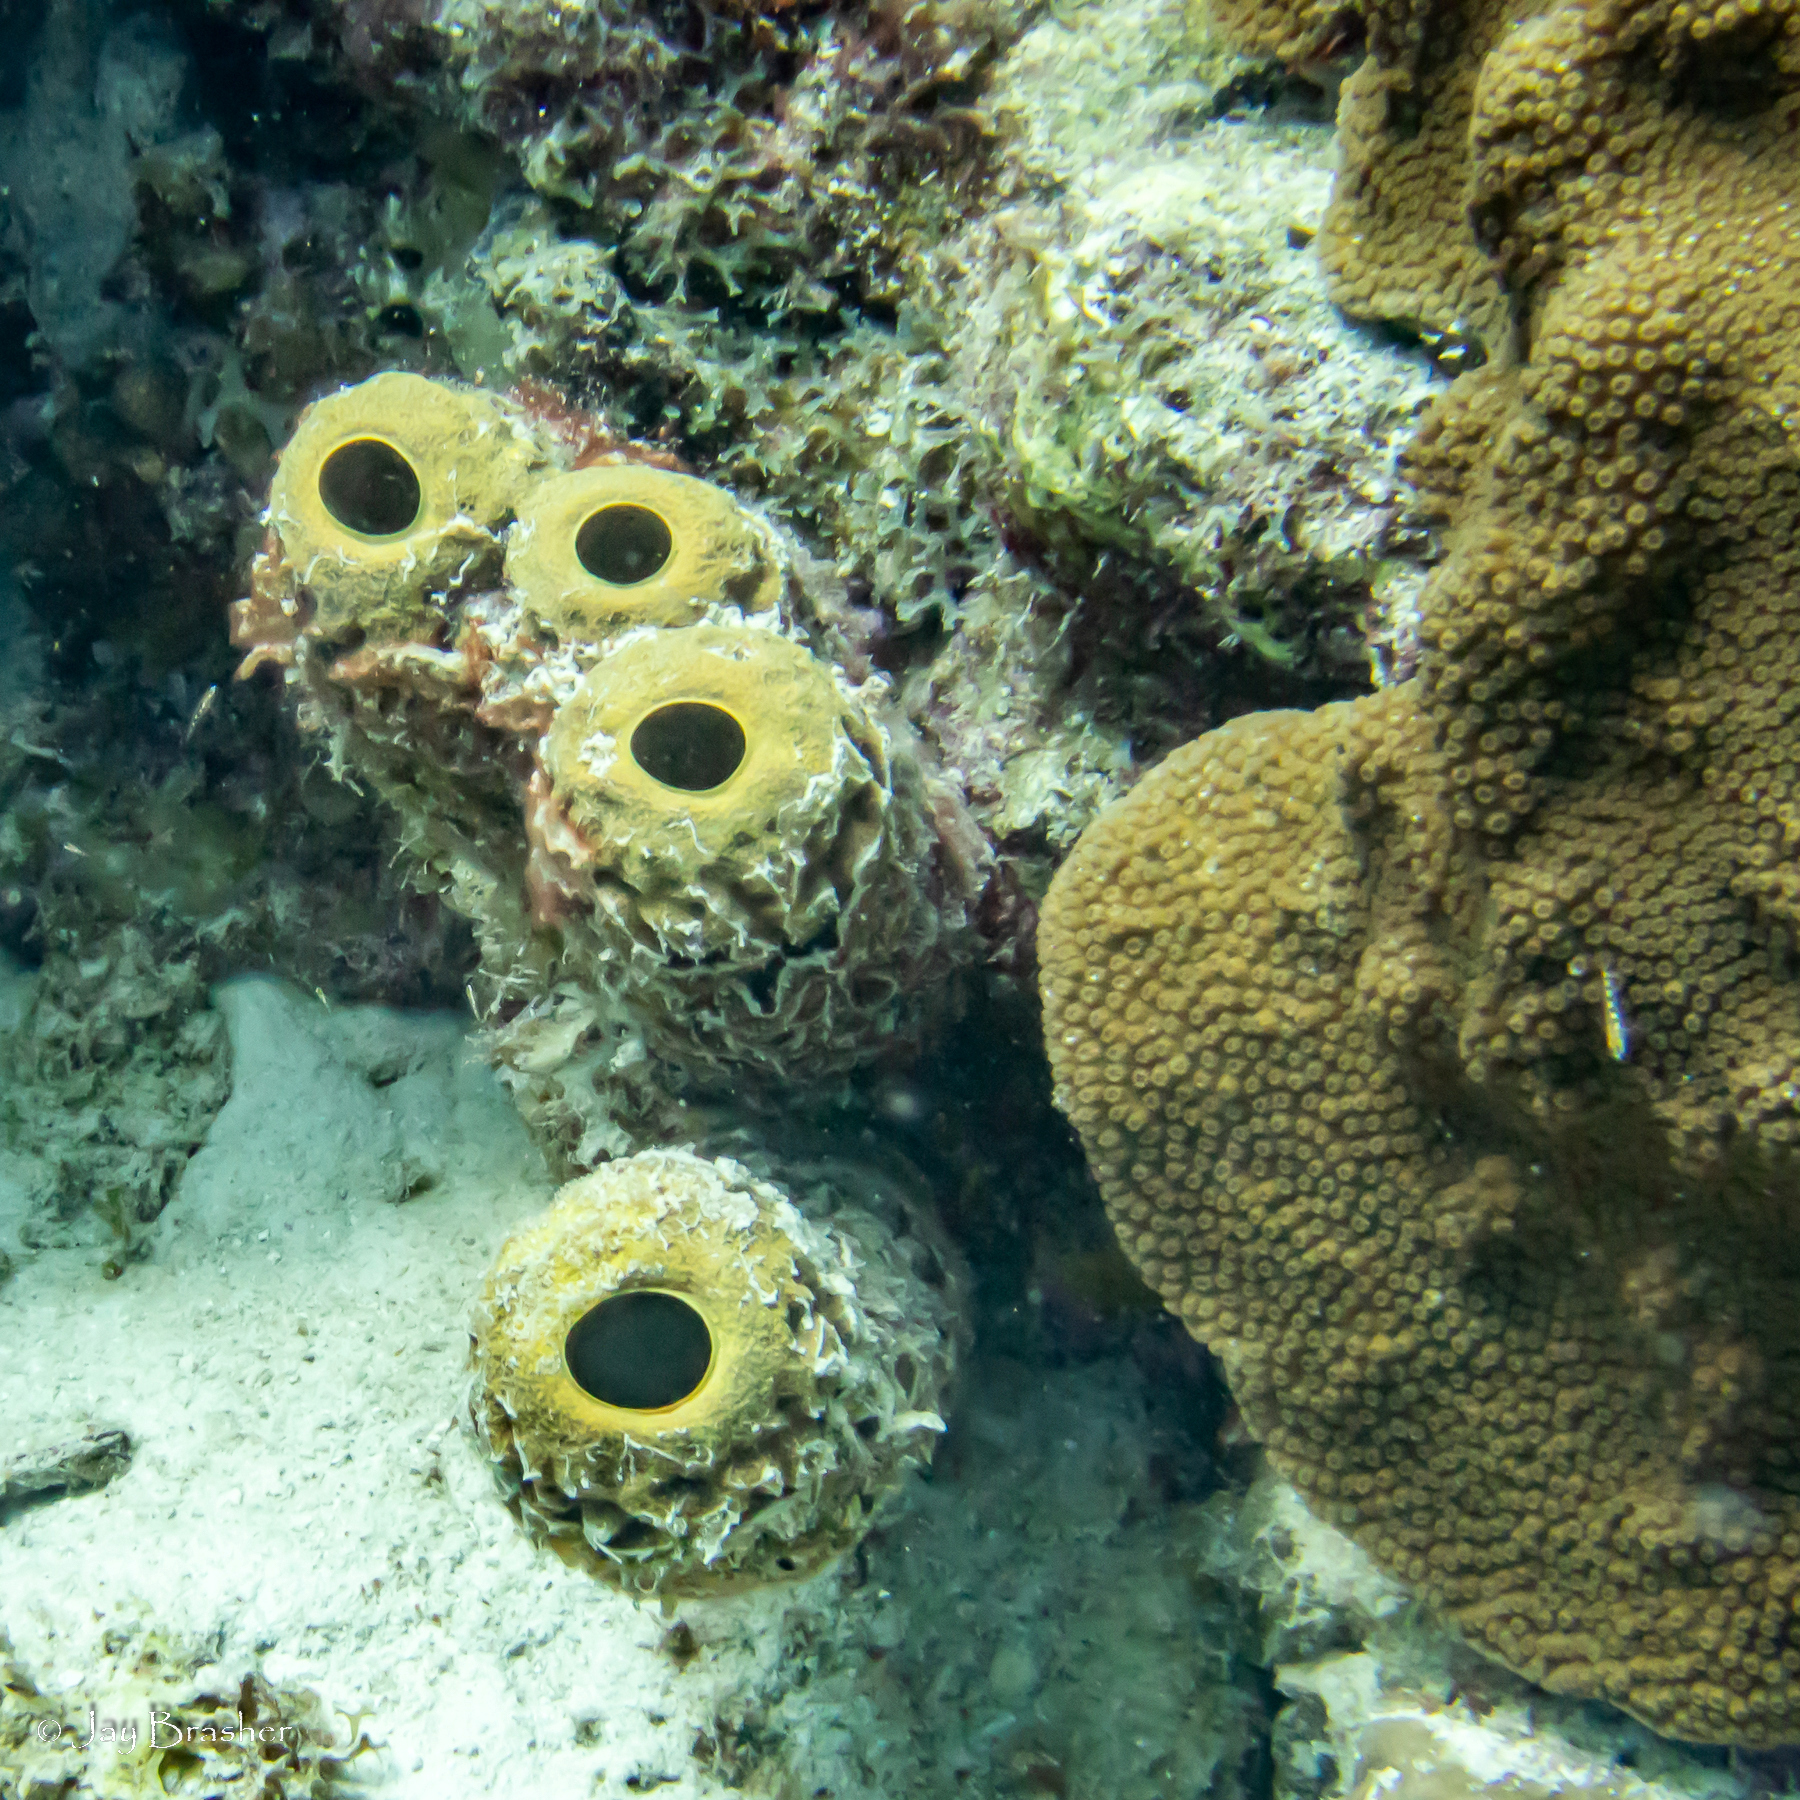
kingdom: Animalia
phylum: Porifera
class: Demospongiae
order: Verongiida
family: Aplysinidae
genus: Aplysina
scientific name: Aplysina archeri
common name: Stove-pipe sponge
